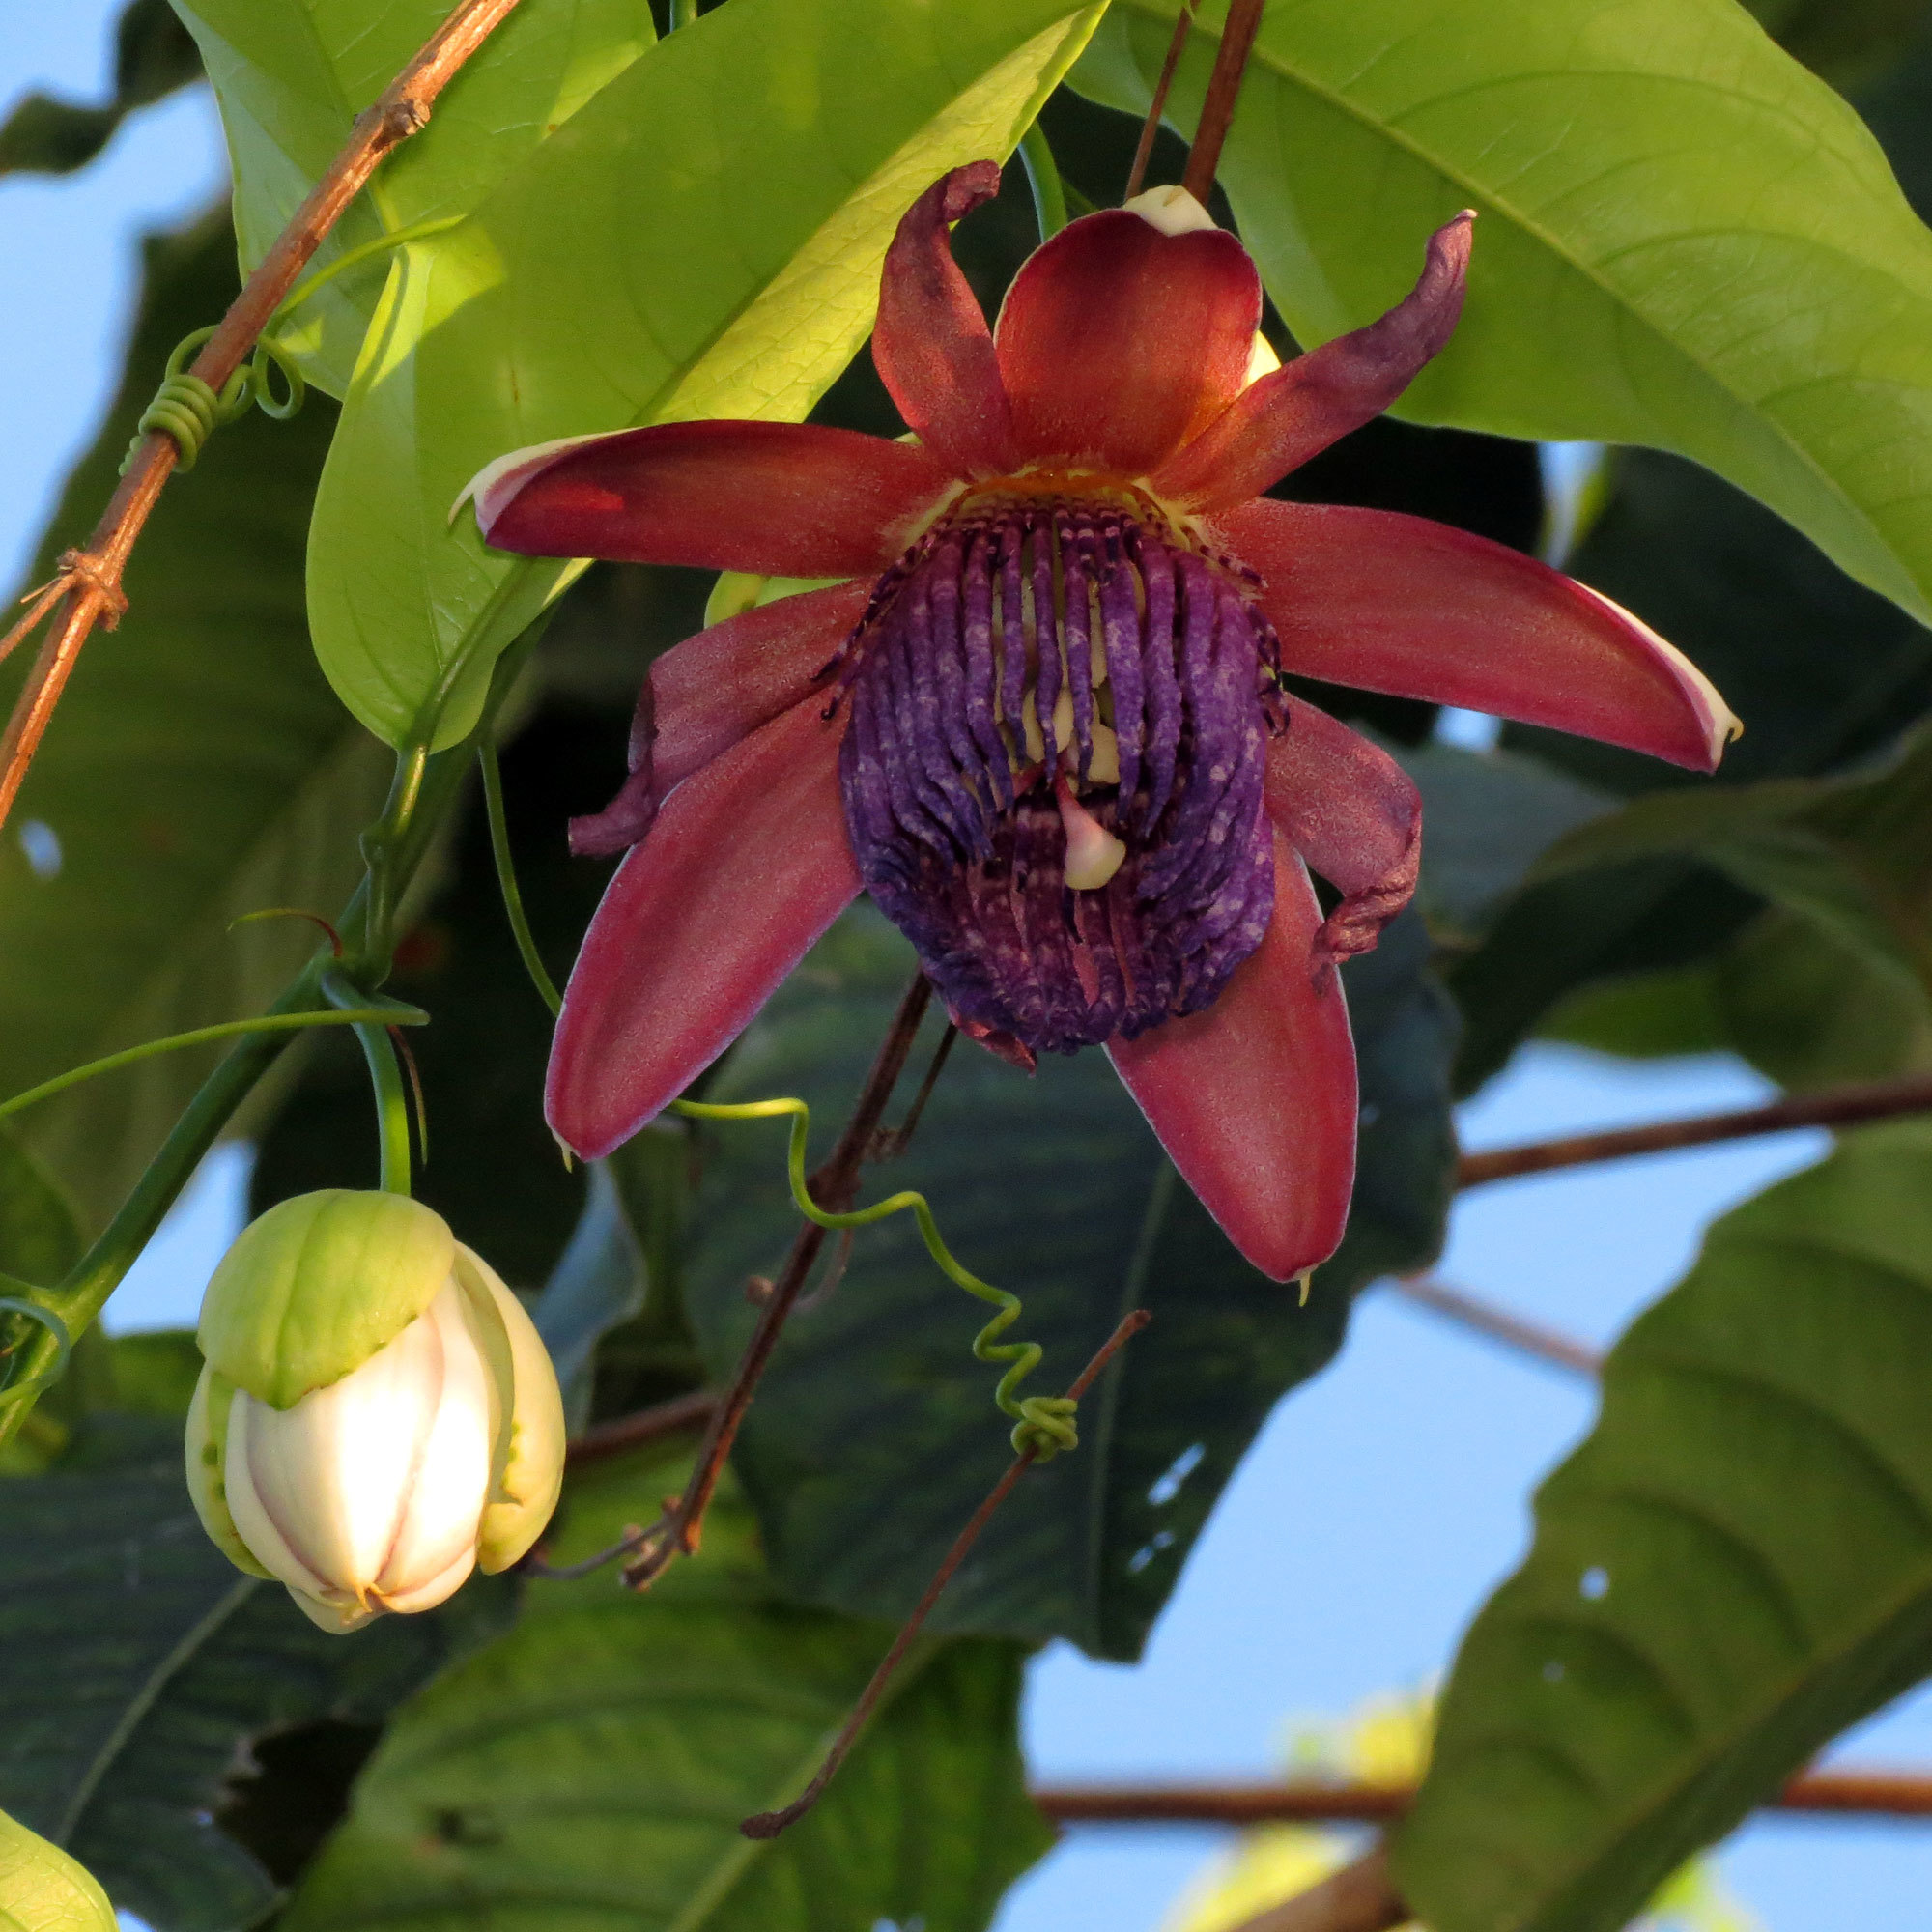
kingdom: Plantae
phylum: Tracheophyta
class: Magnoliopsida
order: Malpighiales
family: Passifloraceae
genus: Passiflora
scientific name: Passiflora ambigua
